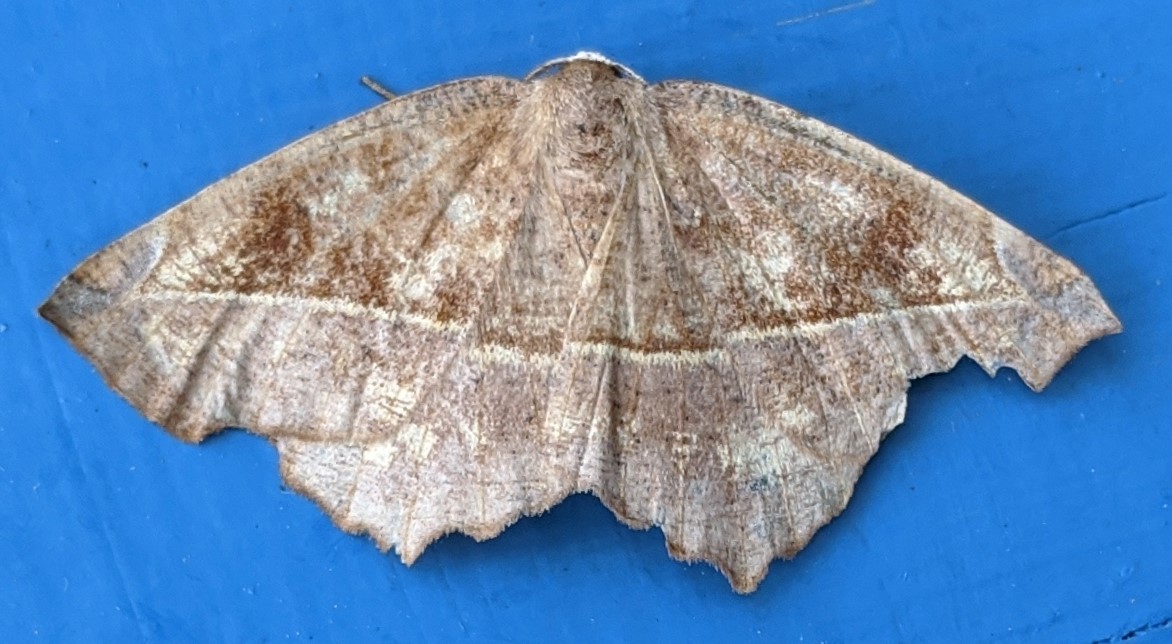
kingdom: Animalia
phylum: Arthropoda
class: Insecta
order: Lepidoptera
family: Geometridae
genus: Eutrapela
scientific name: Eutrapela clemataria
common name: Curved-toothed geometer
